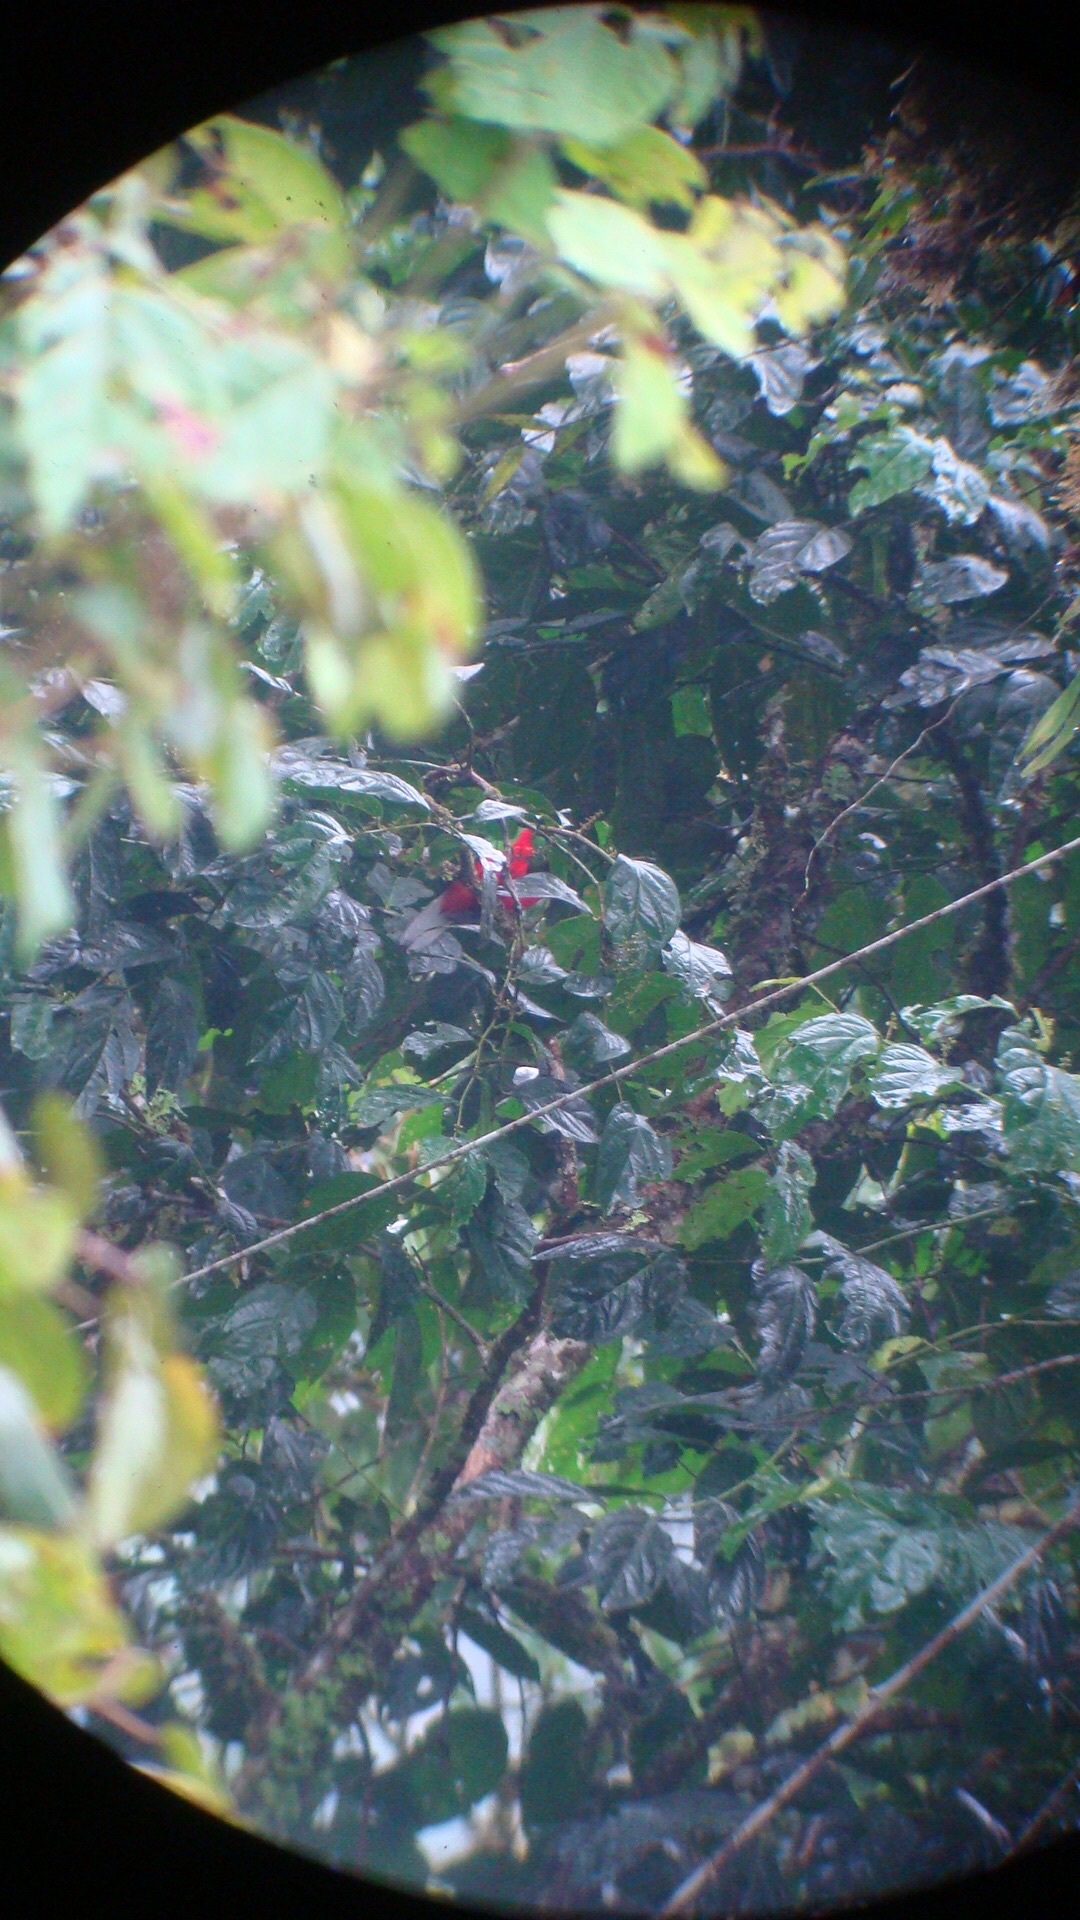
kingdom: Animalia
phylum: Chordata
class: Aves
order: Trogoniformes
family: Trogonidae
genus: Pharomachrus
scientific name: Pharomachrus auriceps
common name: Golden-headed quetzal
